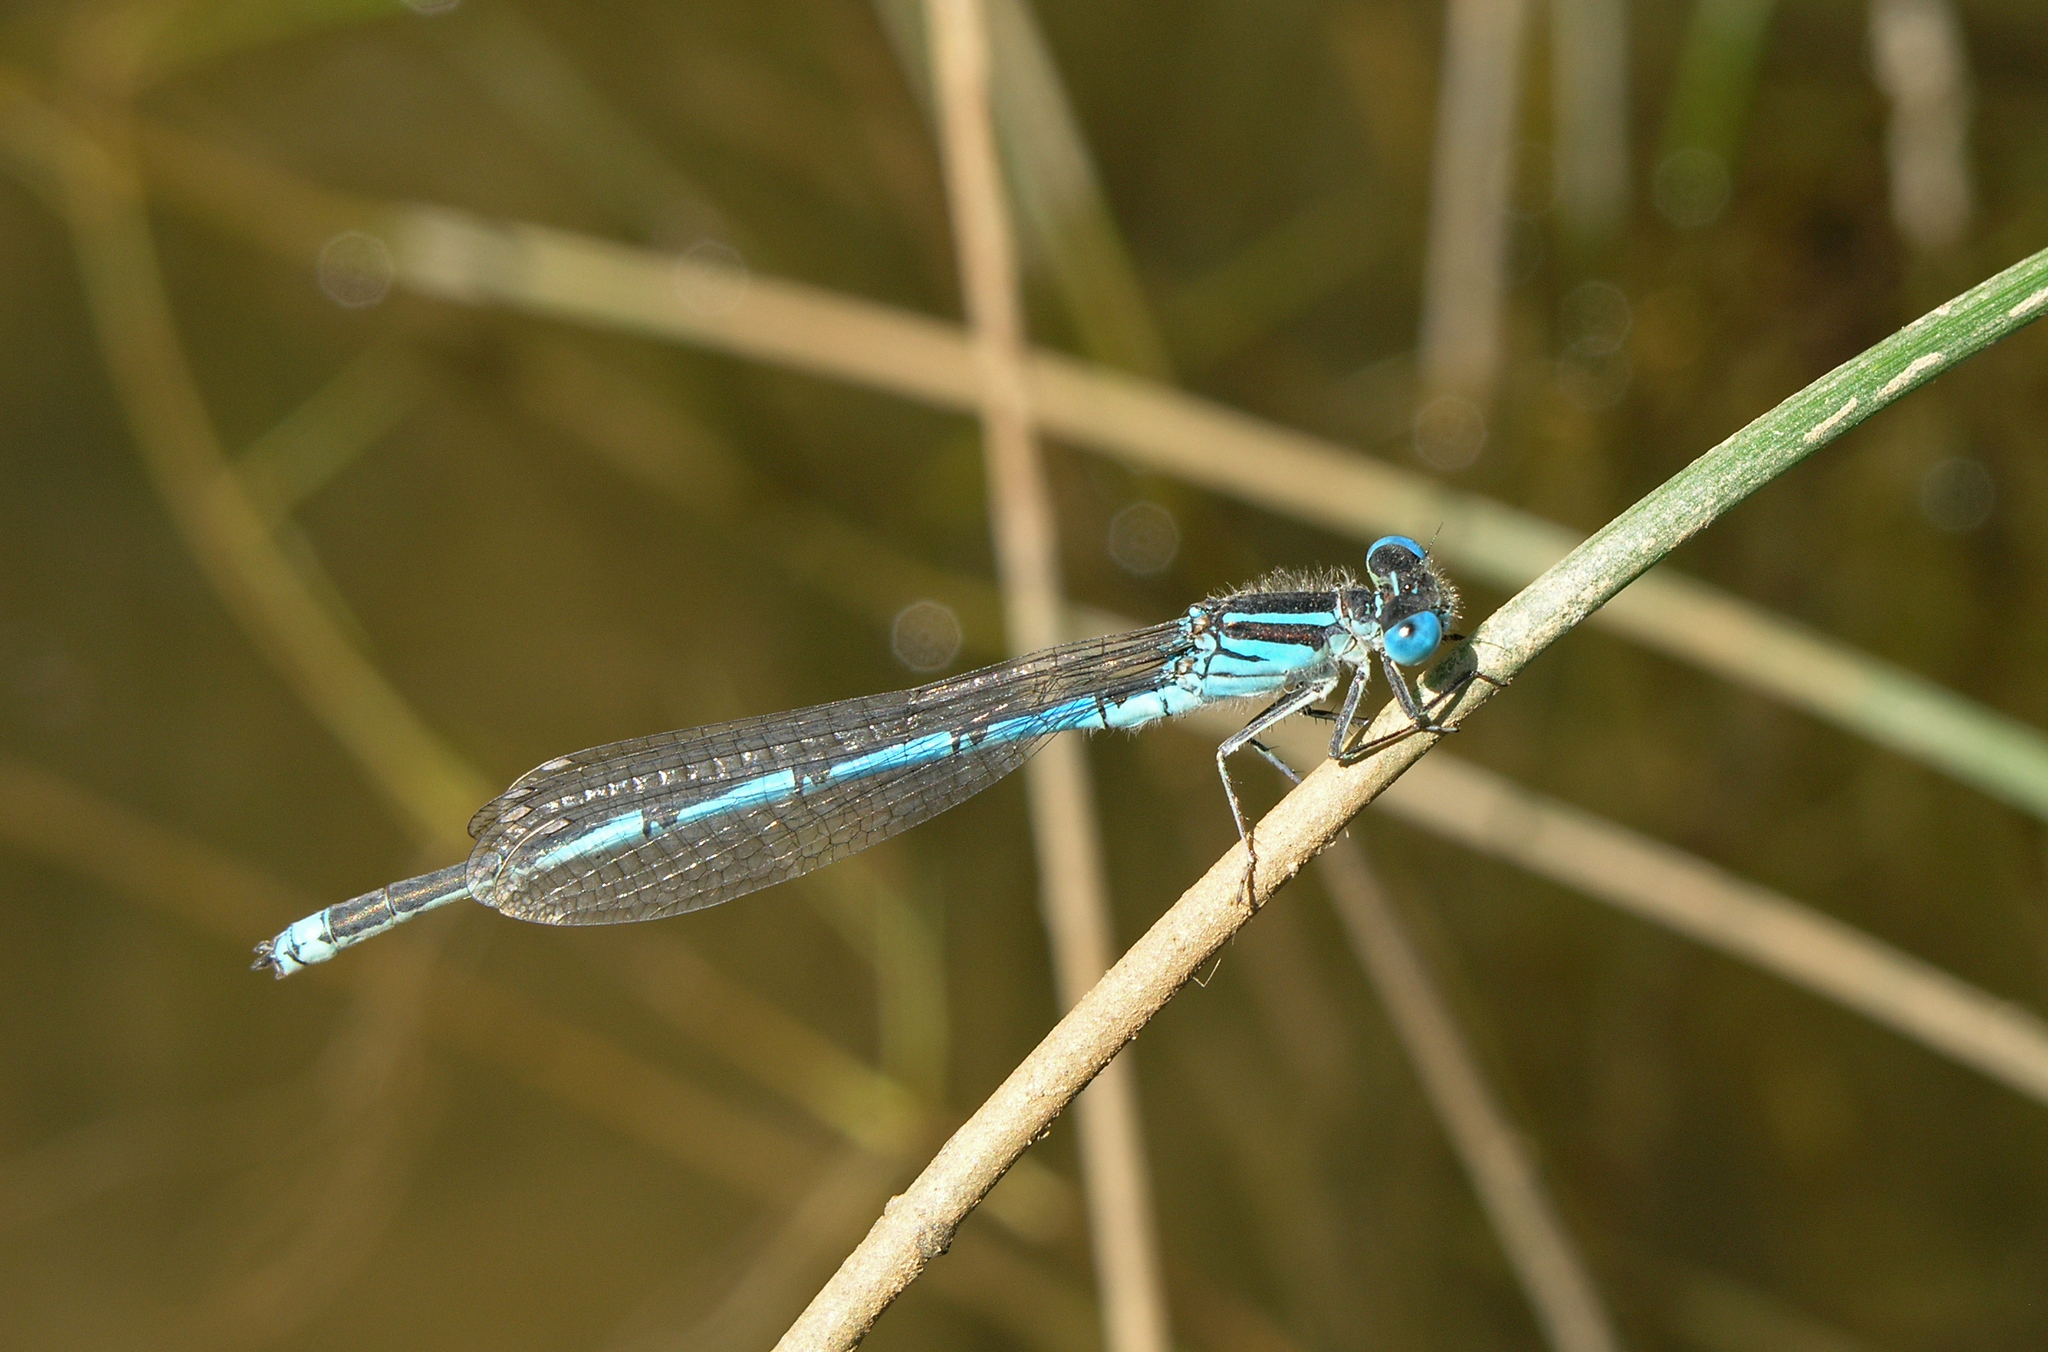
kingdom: Animalia
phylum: Arthropoda
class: Insecta
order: Odonata
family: Coenagrionidae
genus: Erythromma
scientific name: Erythromma lindenii
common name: Blue-eye
